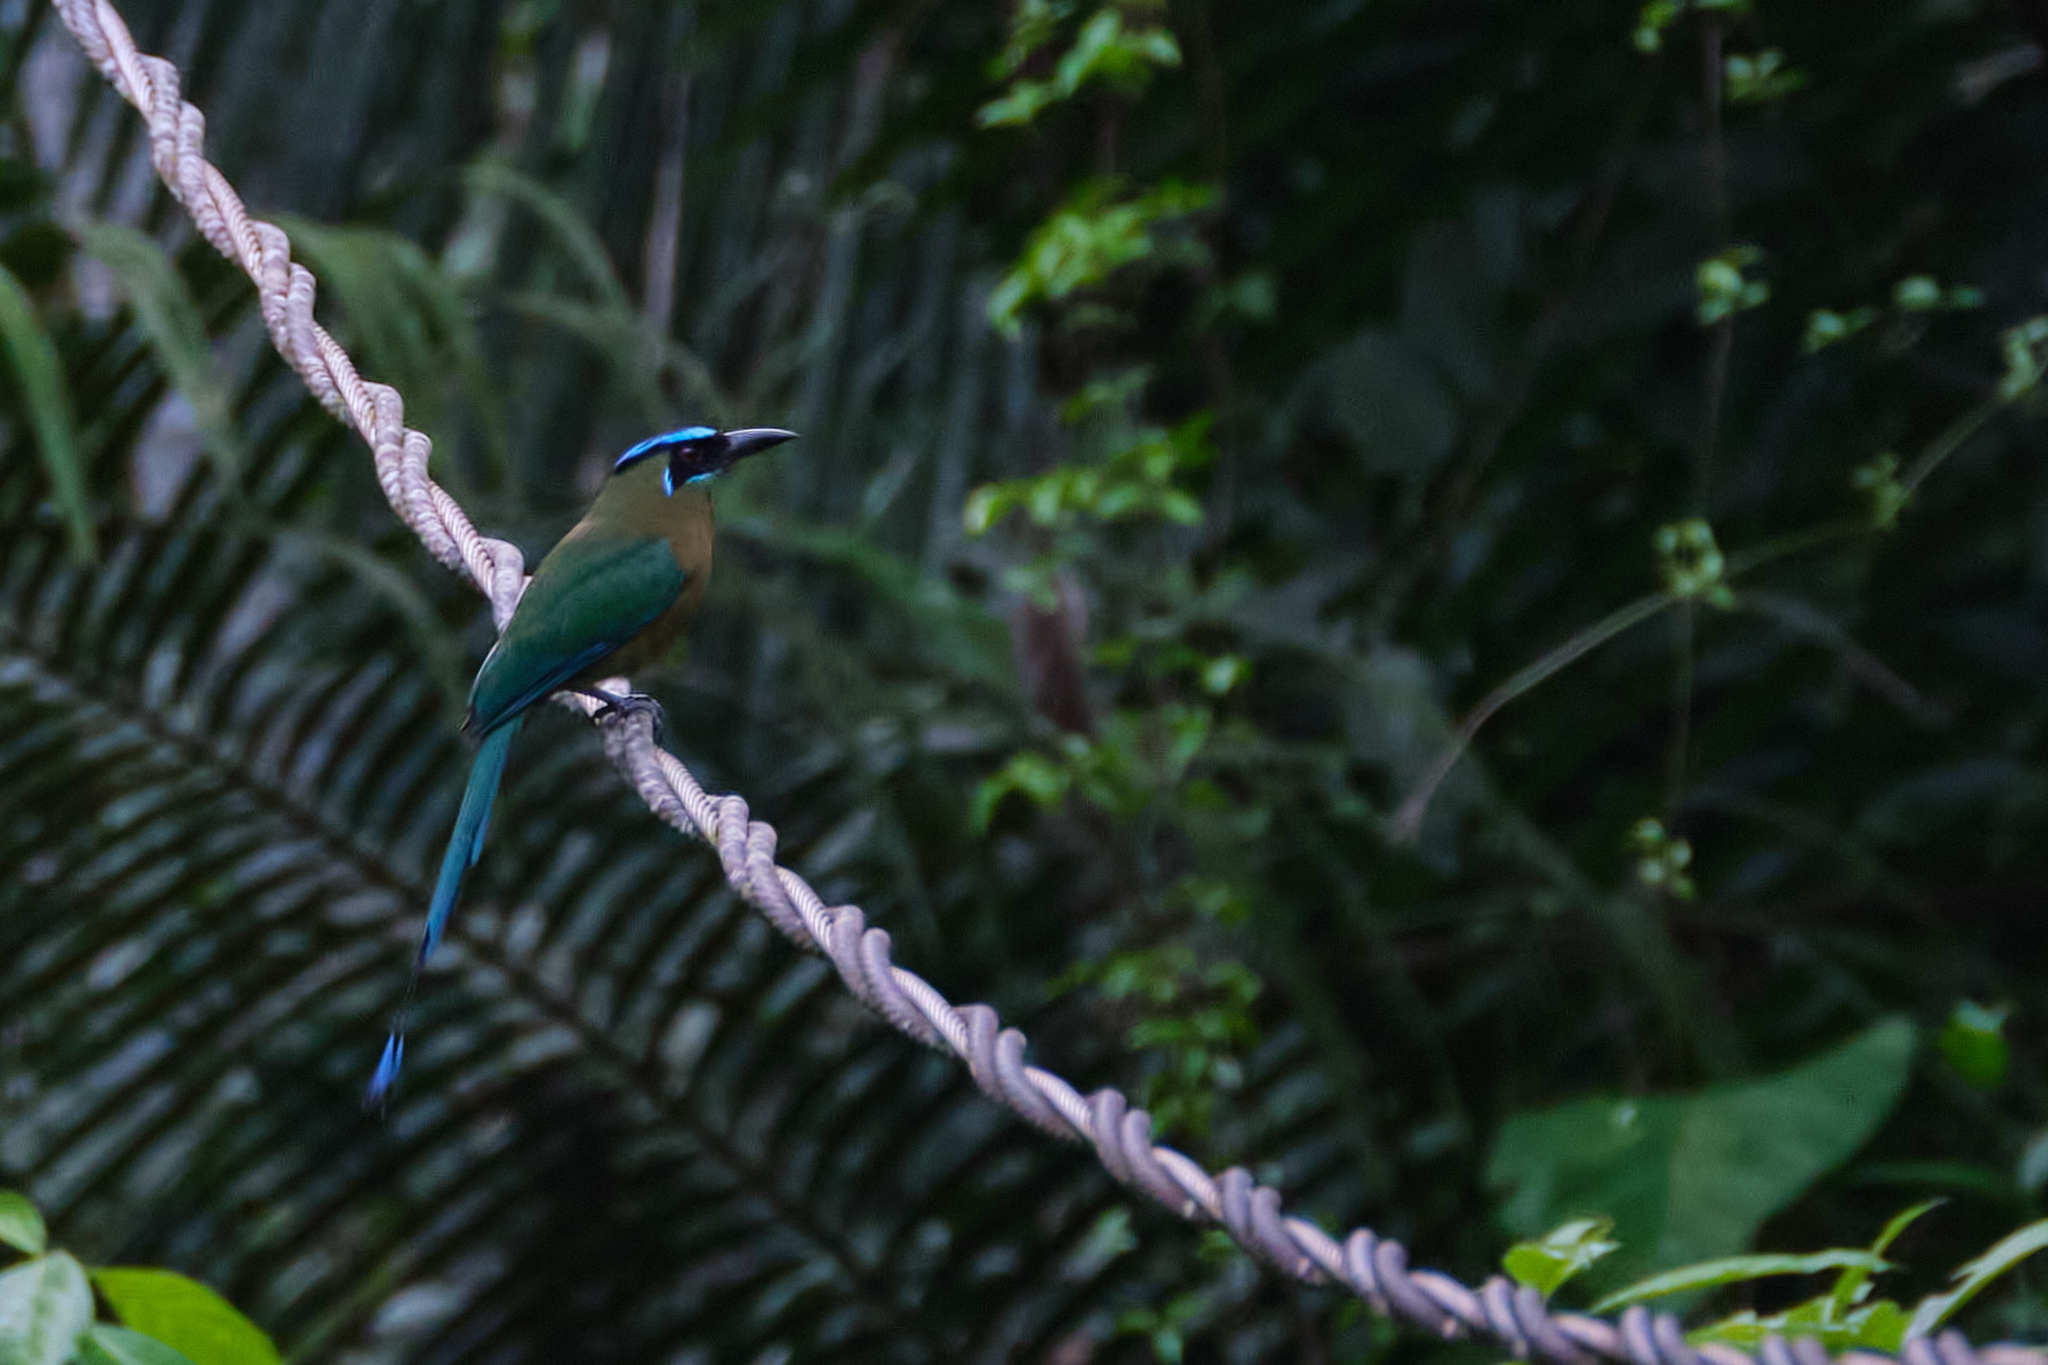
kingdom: Animalia
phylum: Chordata
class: Aves
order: Coraciiformes
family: Momotidae
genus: Momotus
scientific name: Momotus lessonii
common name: Lesson's motmot
